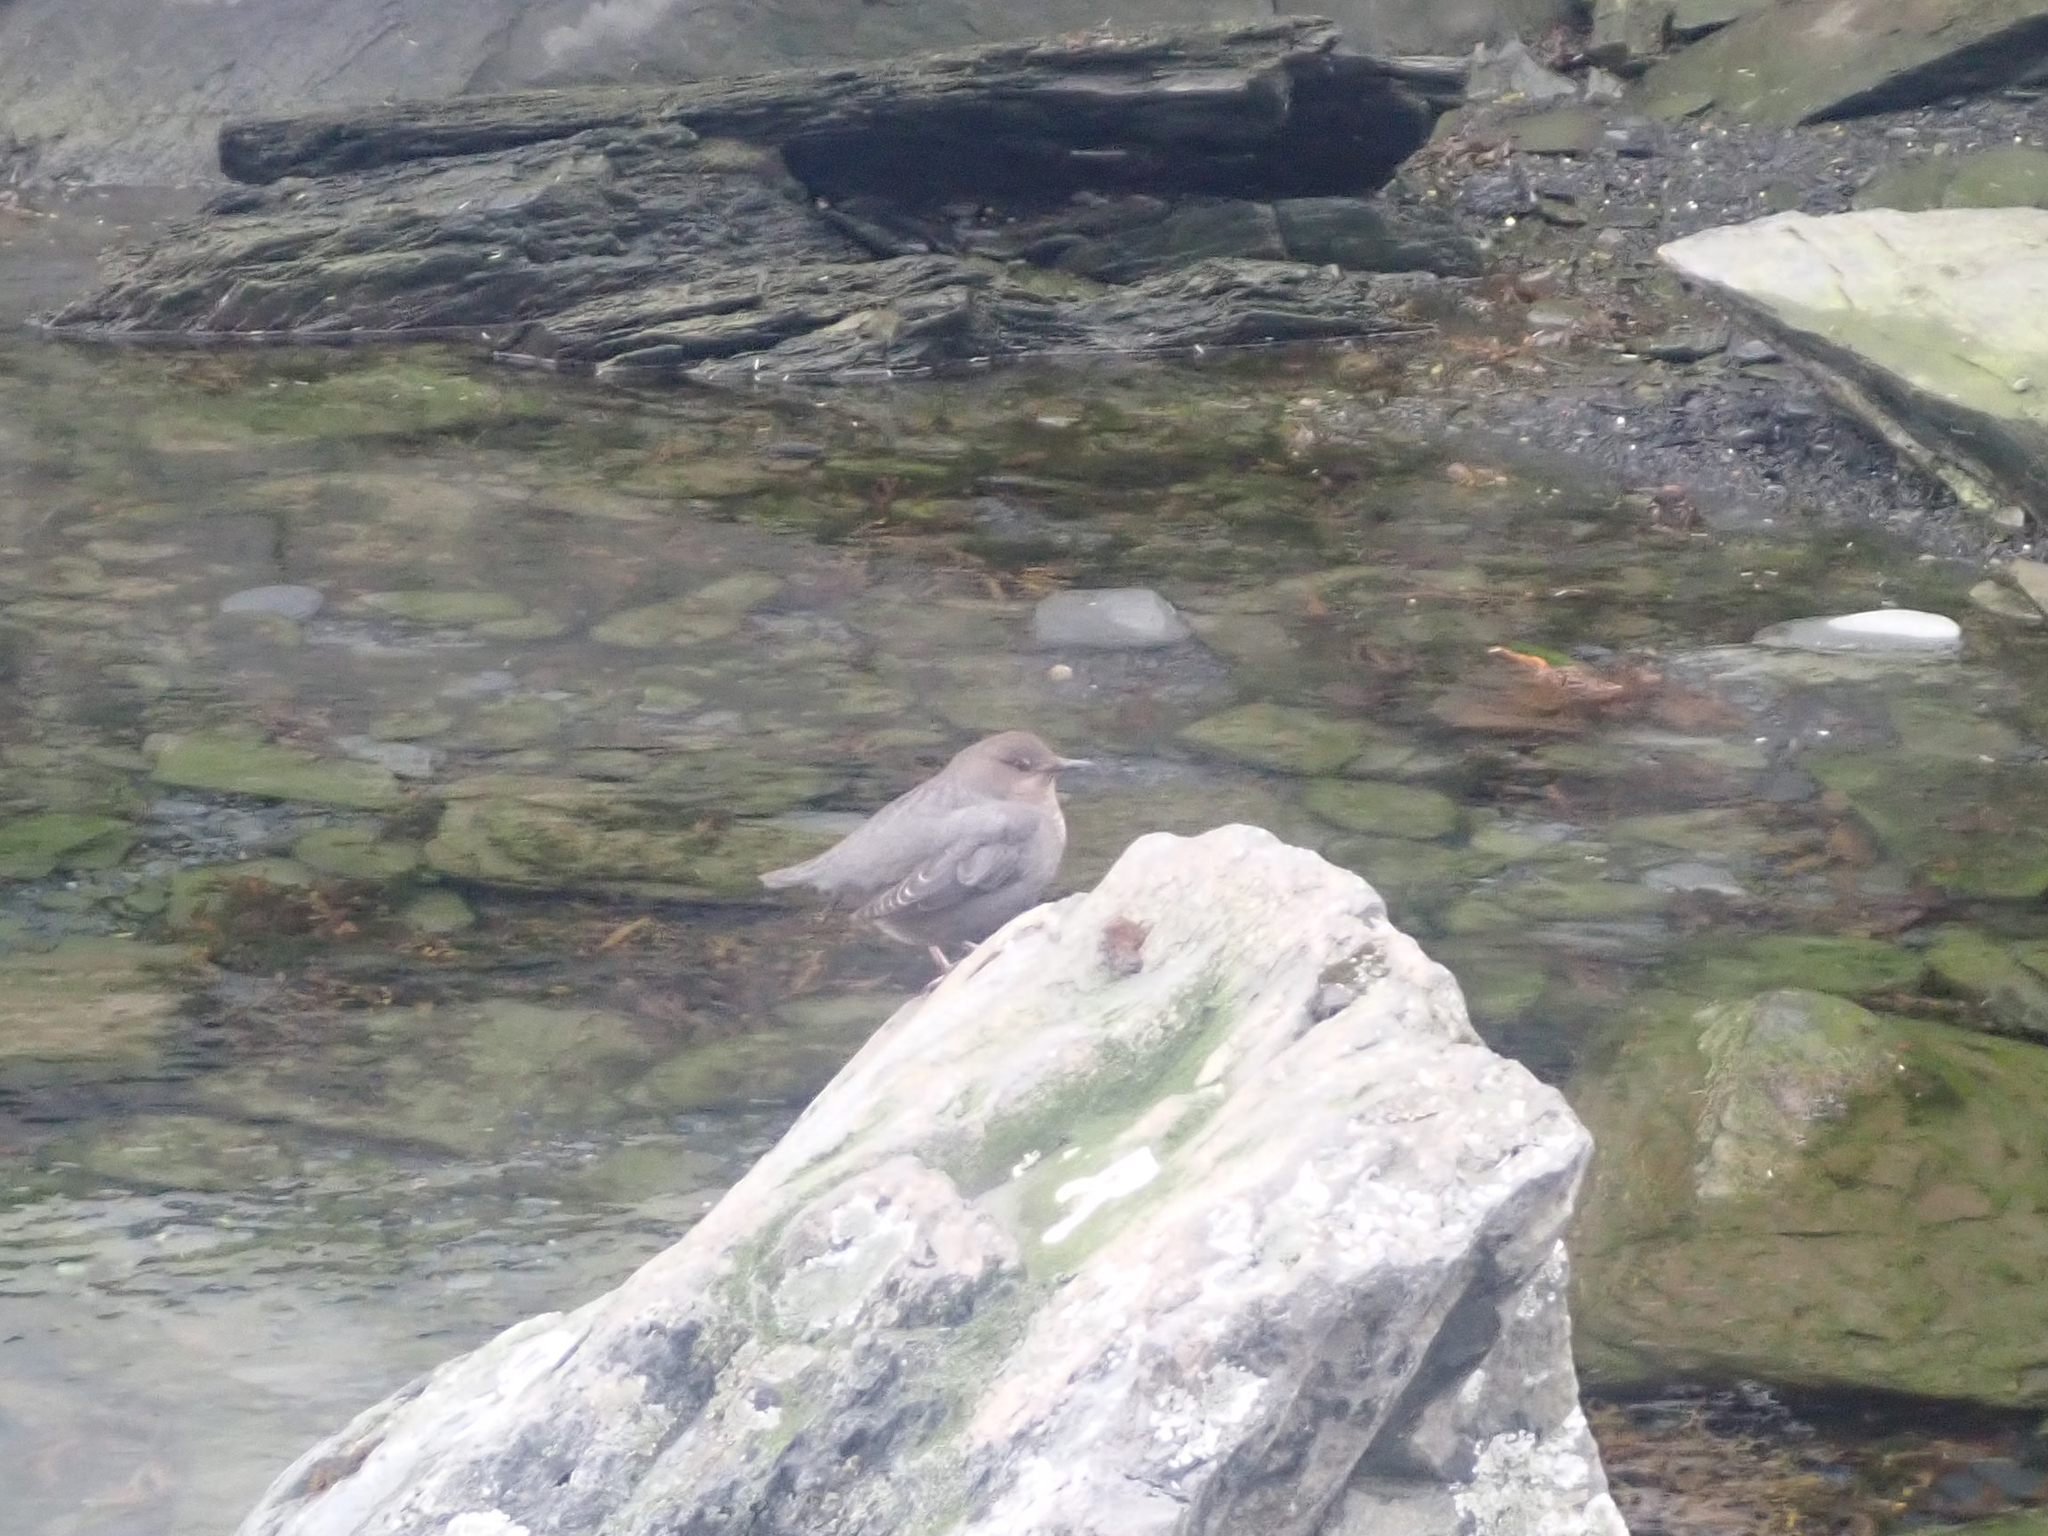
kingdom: Animalia
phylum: Chordata
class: Aves
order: Passeriformes
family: Cinclidae
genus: Cinclus
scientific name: Cinclus mexicanus
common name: American dipper
